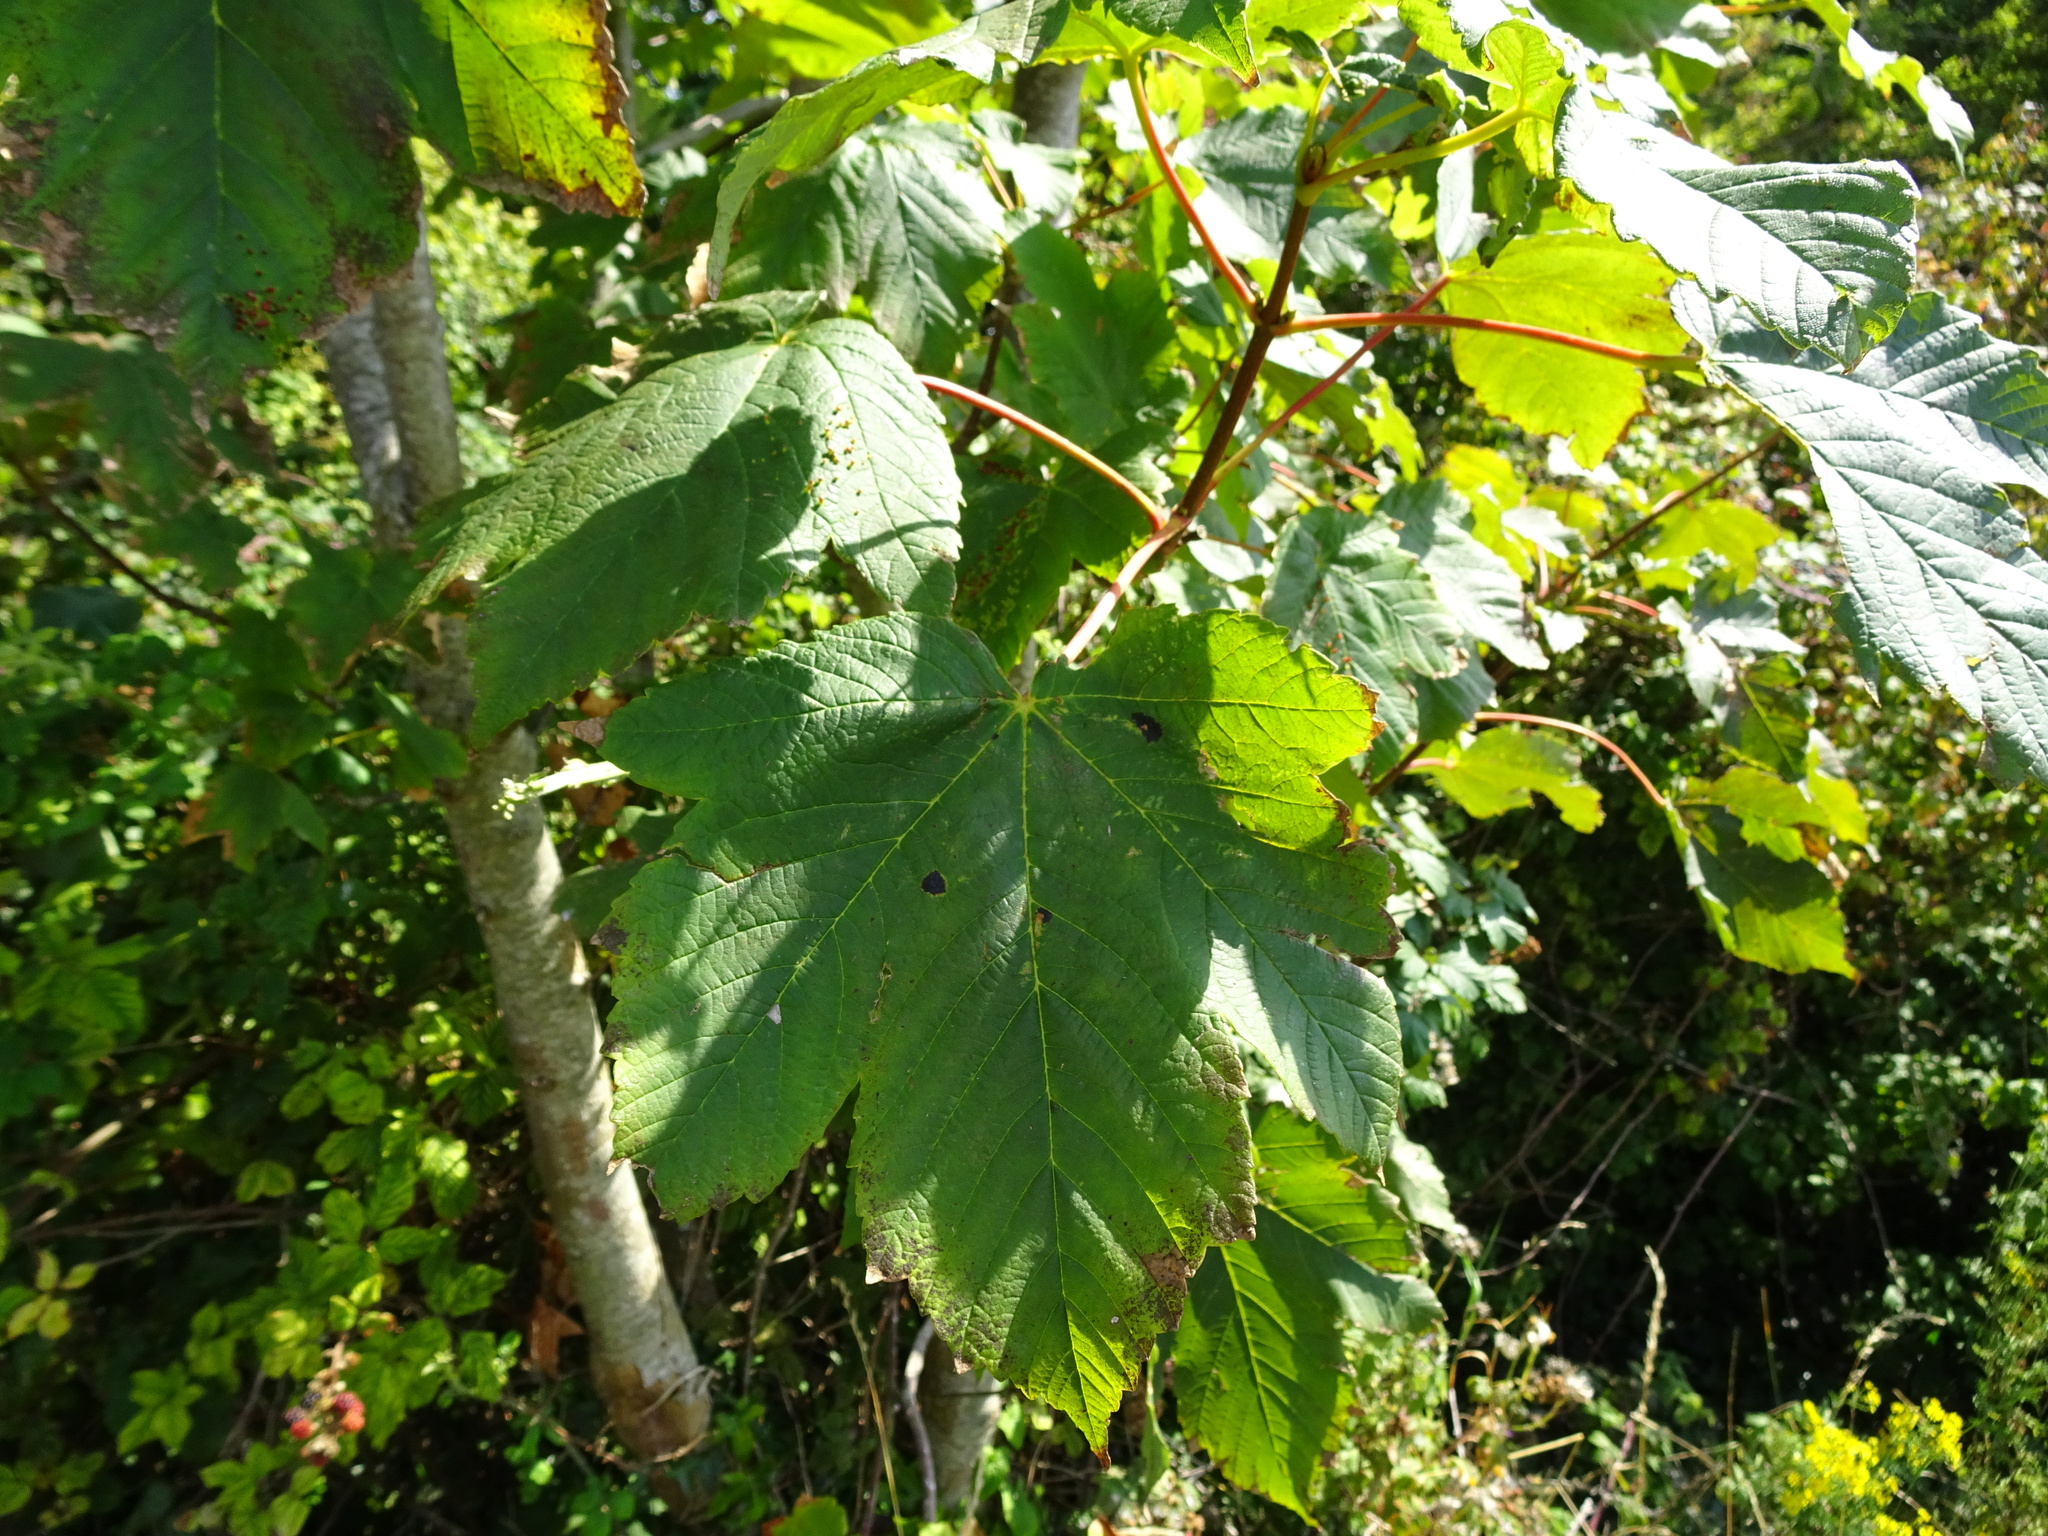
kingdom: Plantae
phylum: Tracheophyta
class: Magnoliopsida
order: Sapindales
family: Sapindaceae
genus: Acer
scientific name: Acer pseudoplatanus
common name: Sycamore
